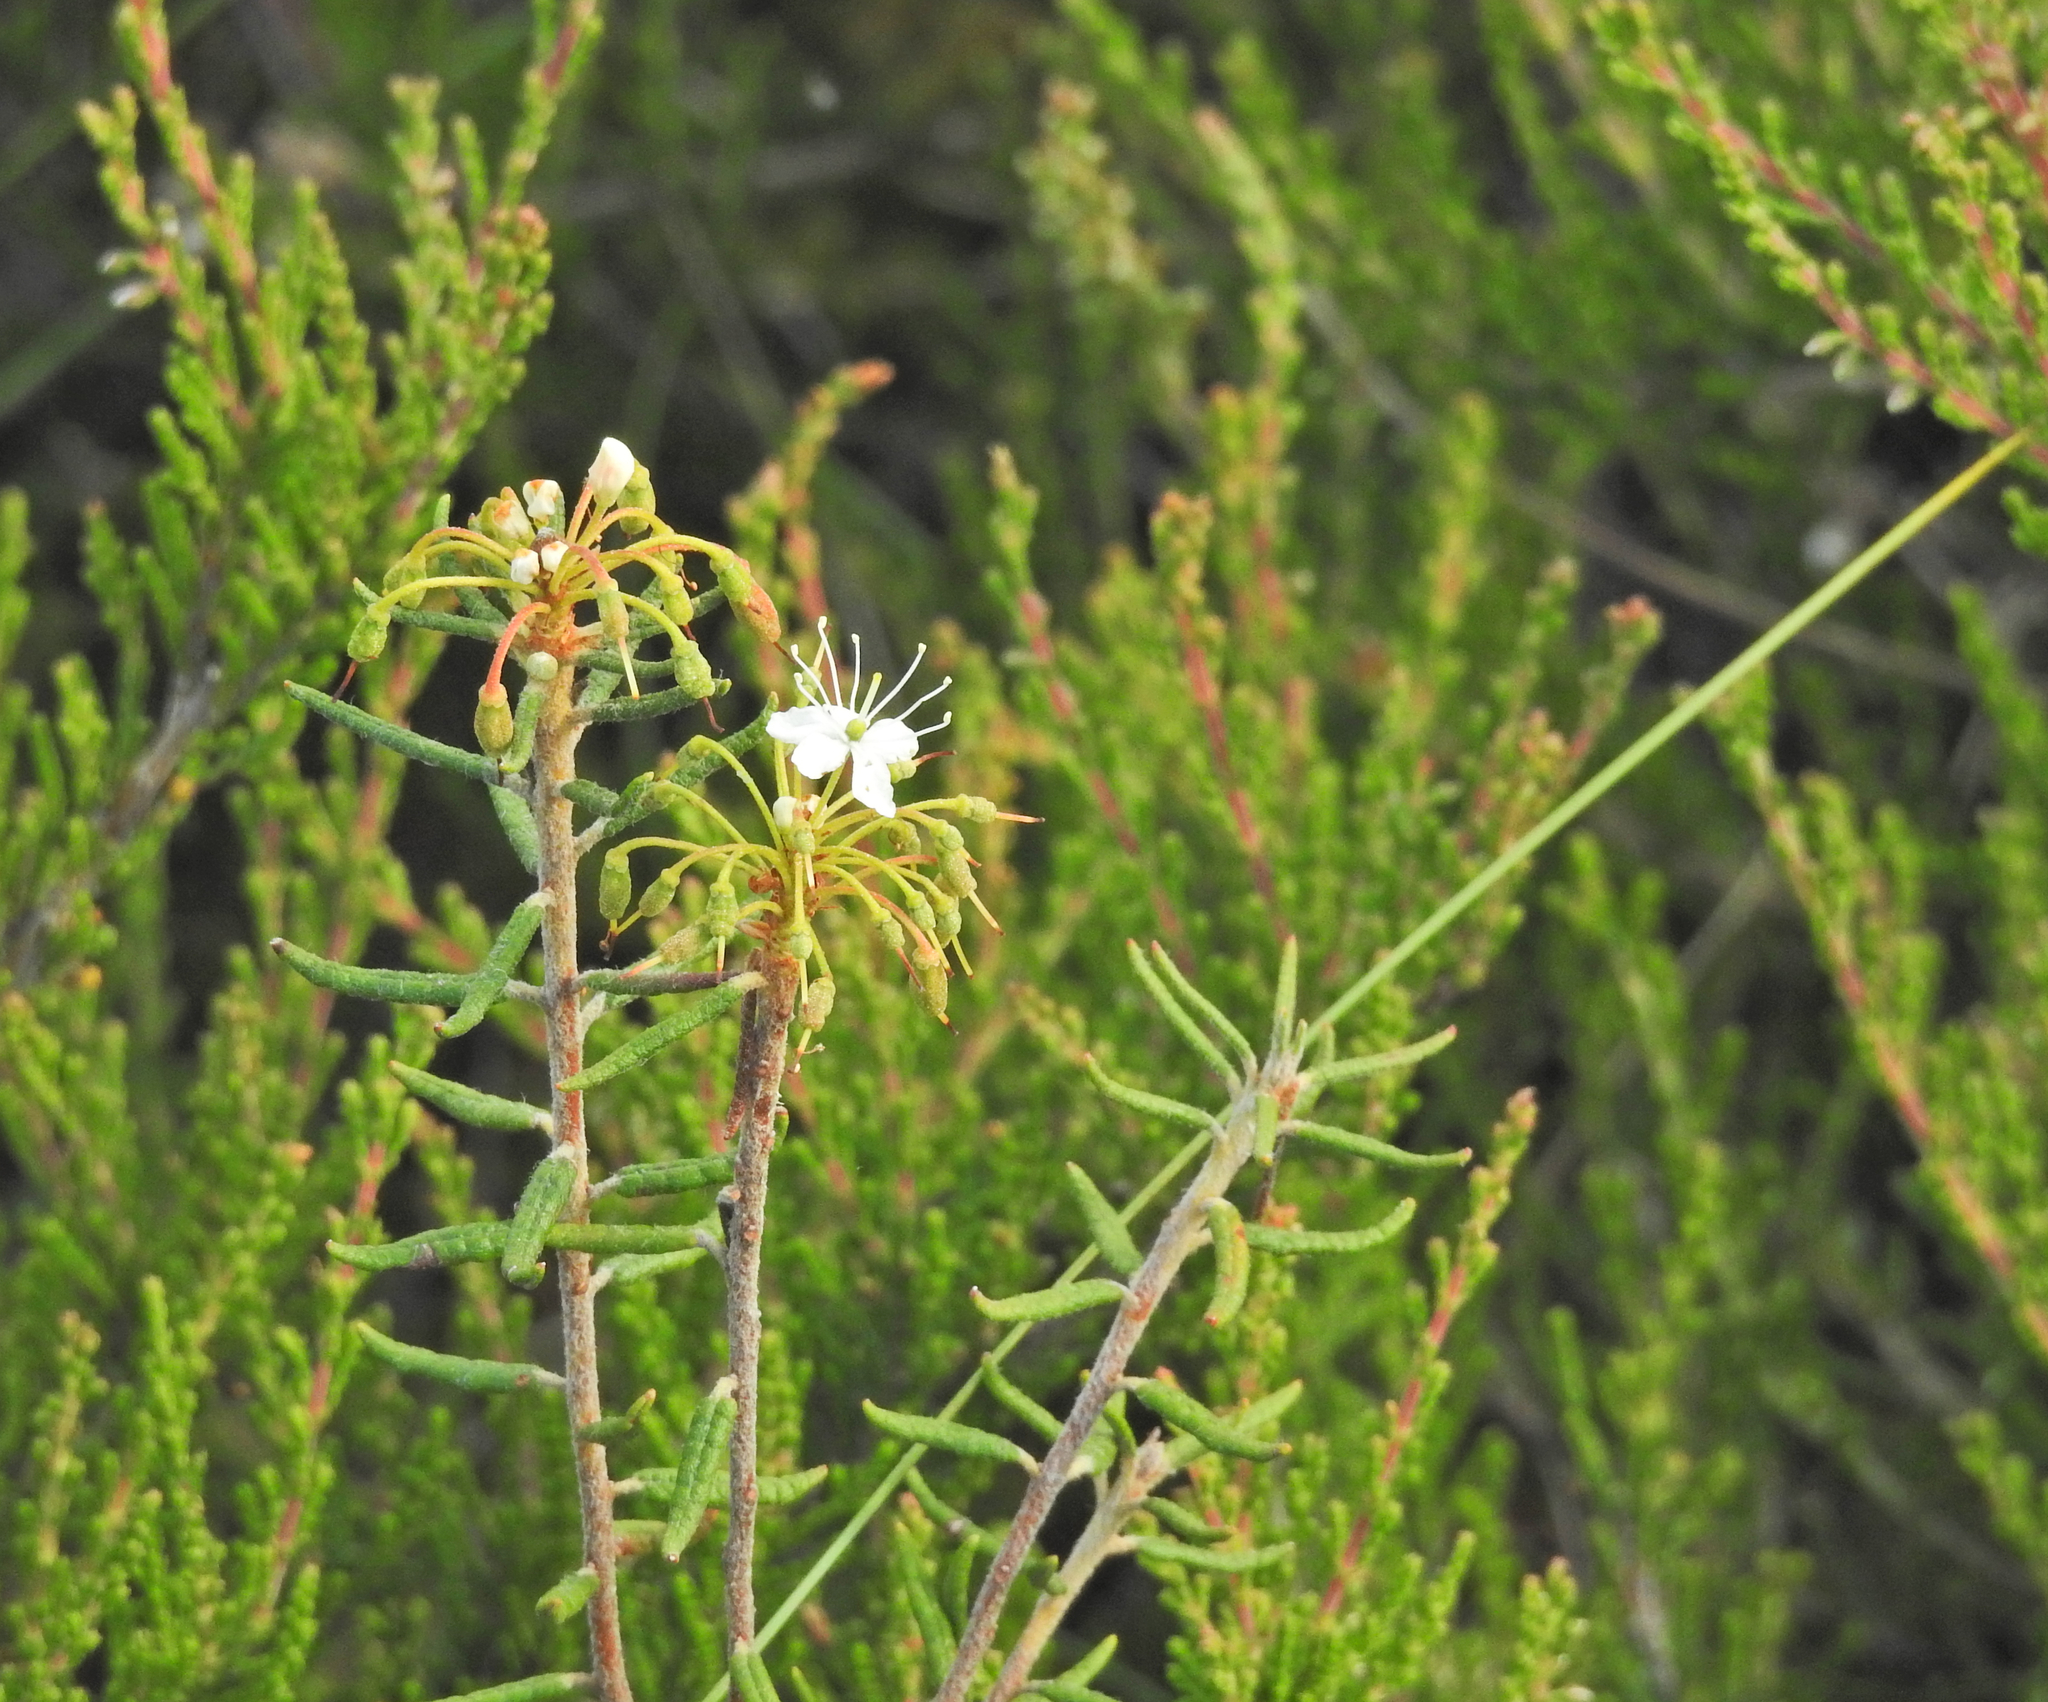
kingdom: Plantae
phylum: Tracheophyta
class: Magnoliopsida
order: Ericales
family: Ericaceae
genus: Rhododendron
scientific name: Rhododendron tomentosum
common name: Marsh labrador tea
